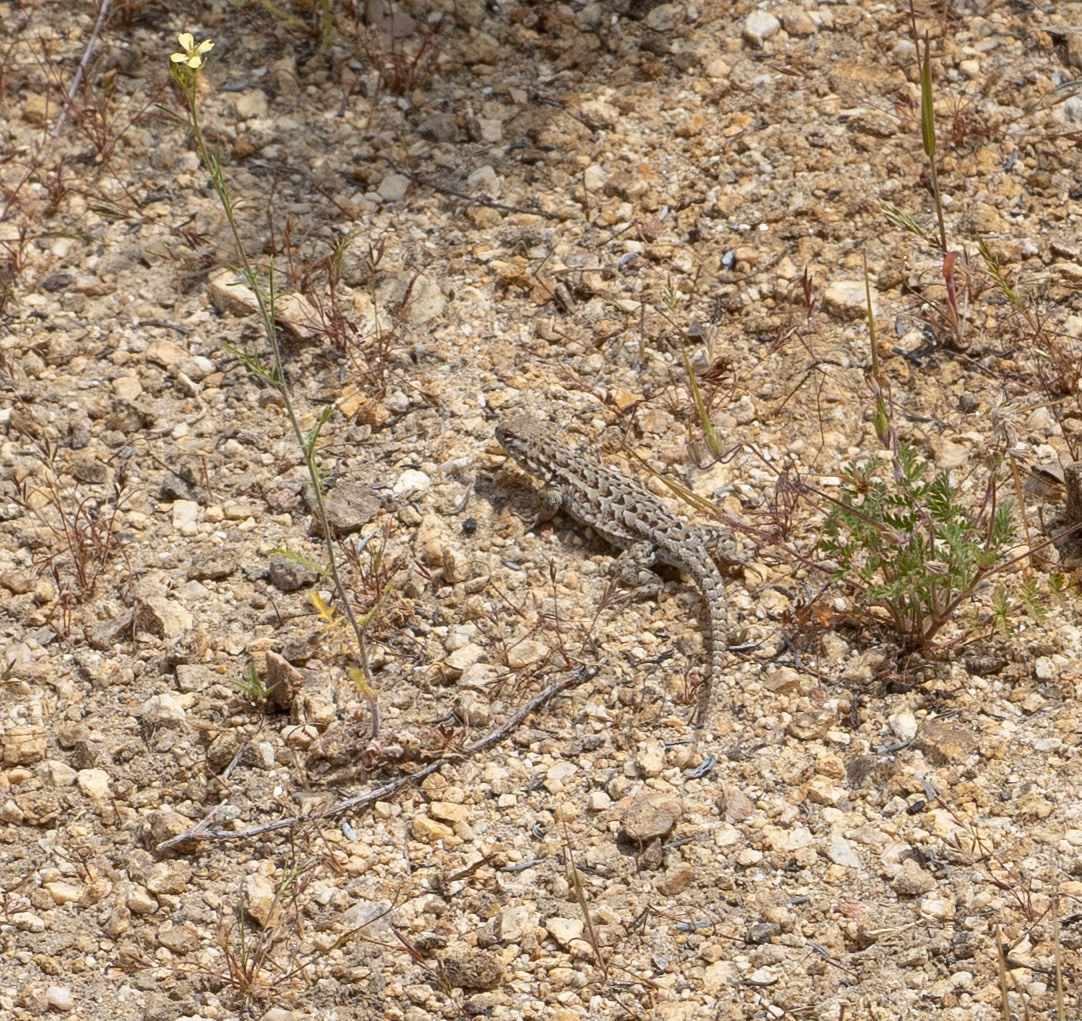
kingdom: Animalia
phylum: Chordata
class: Squamata
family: Phrynosomatidae
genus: Uta
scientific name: Uta stansburiana
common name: Side-blotched lizard
